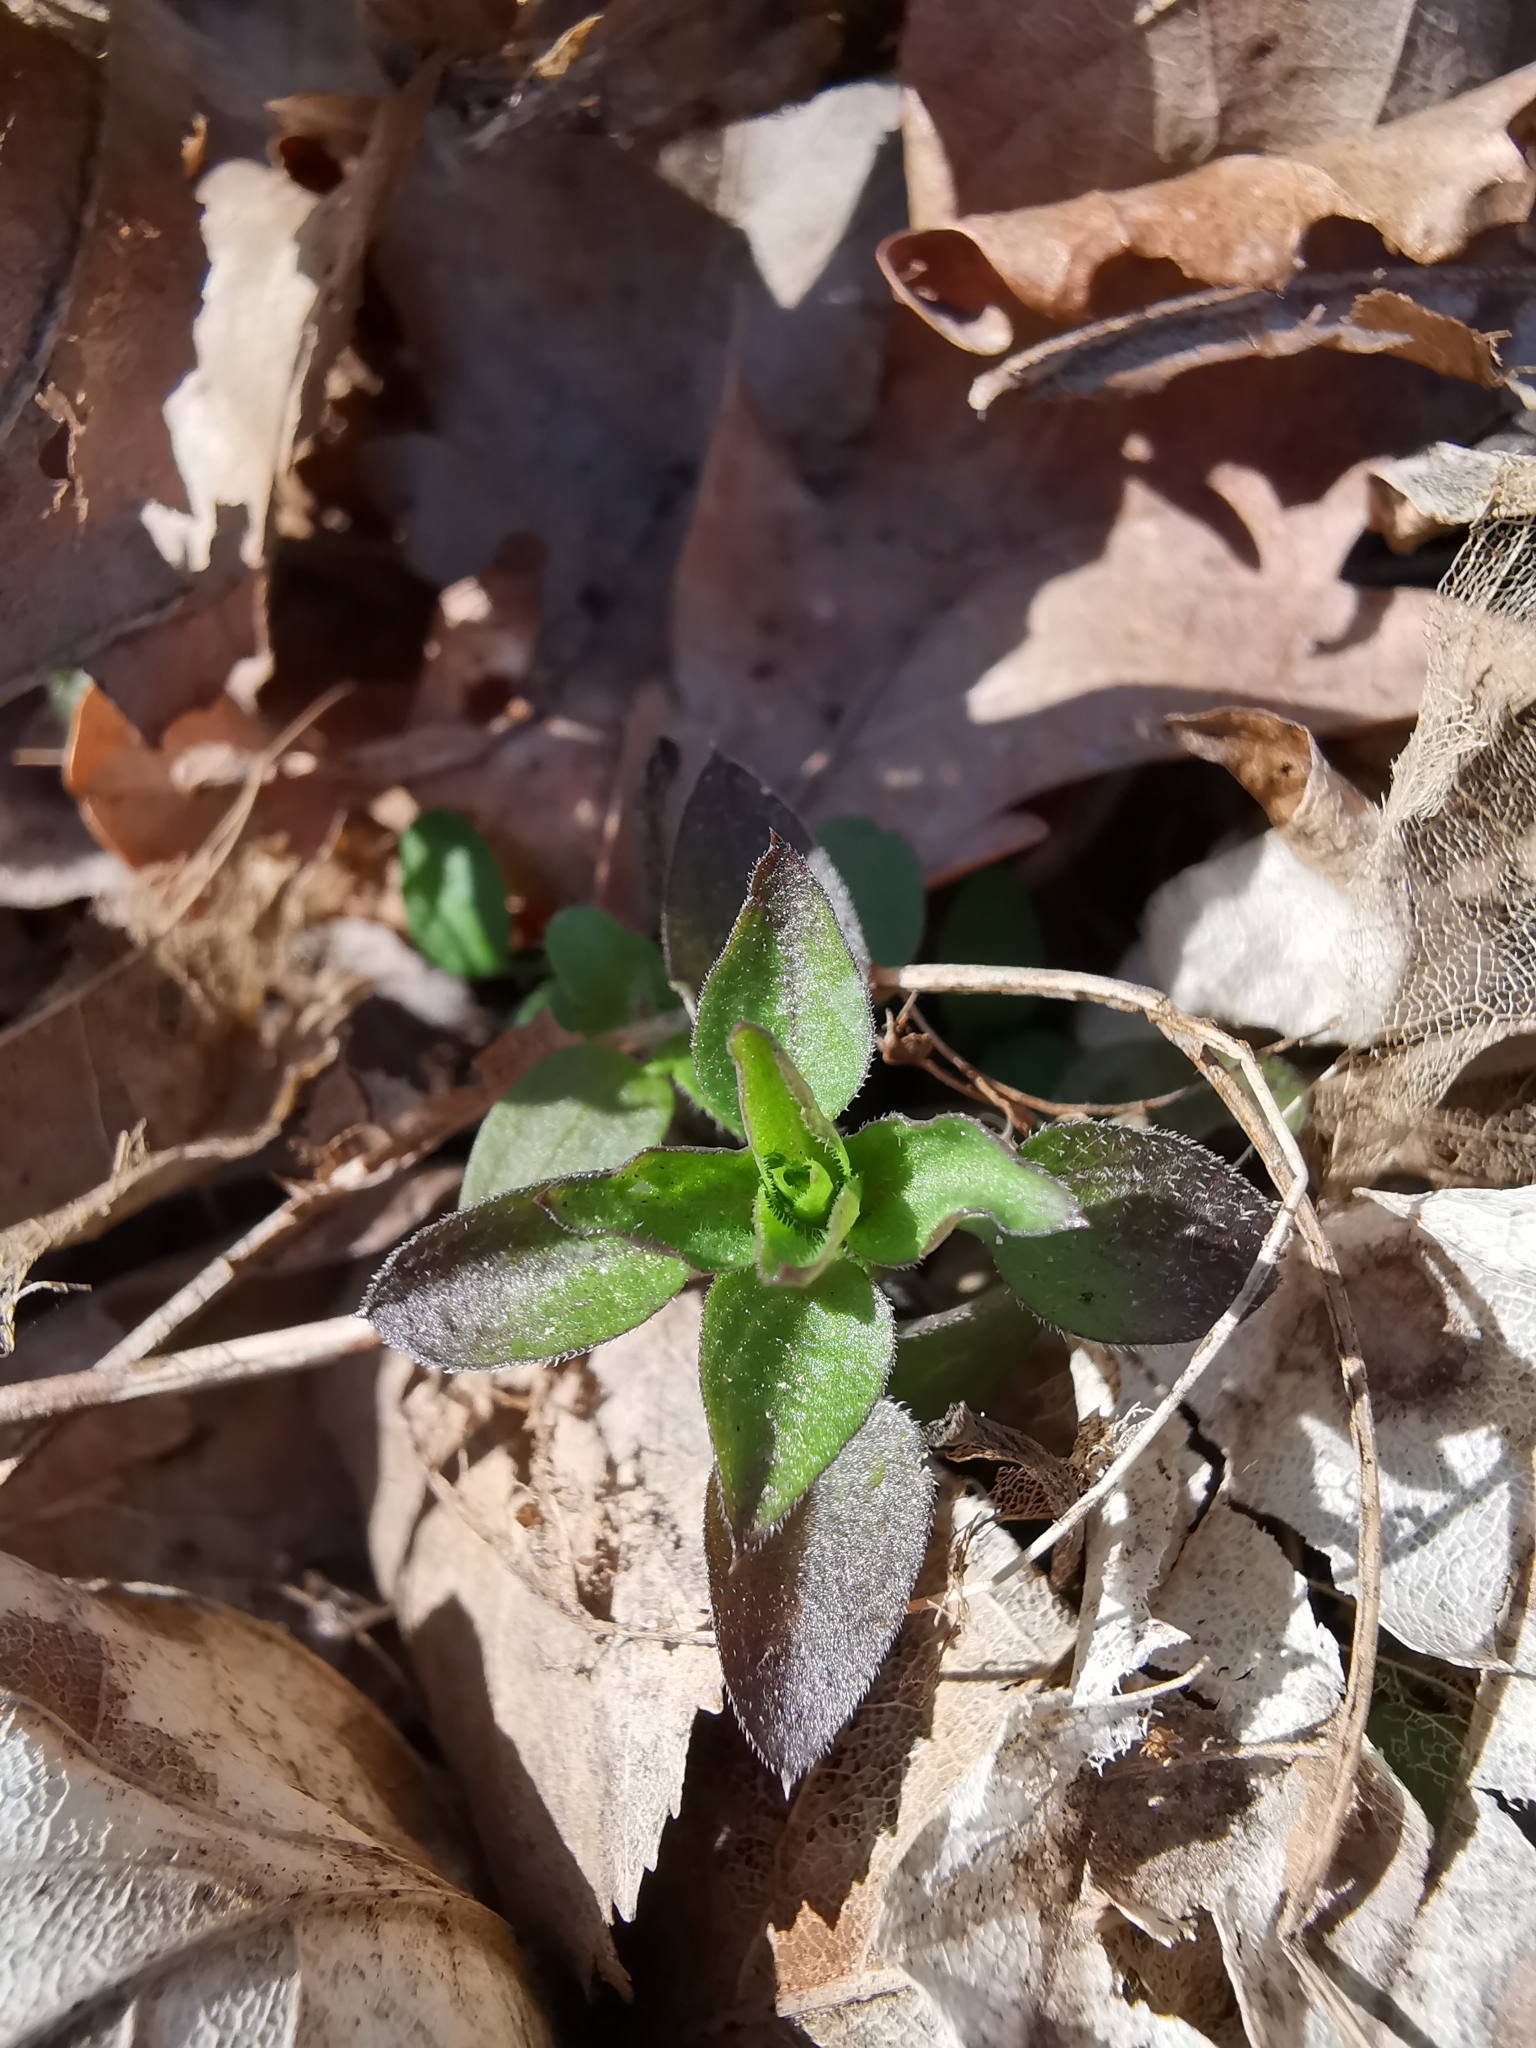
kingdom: Plantae
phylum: Tracheophyta
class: Magnoliopsida
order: Caryophyllales
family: Caryophyllaceae
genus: Moehringia
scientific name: Moehringia trinervia
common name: Three-nerved sandwort
